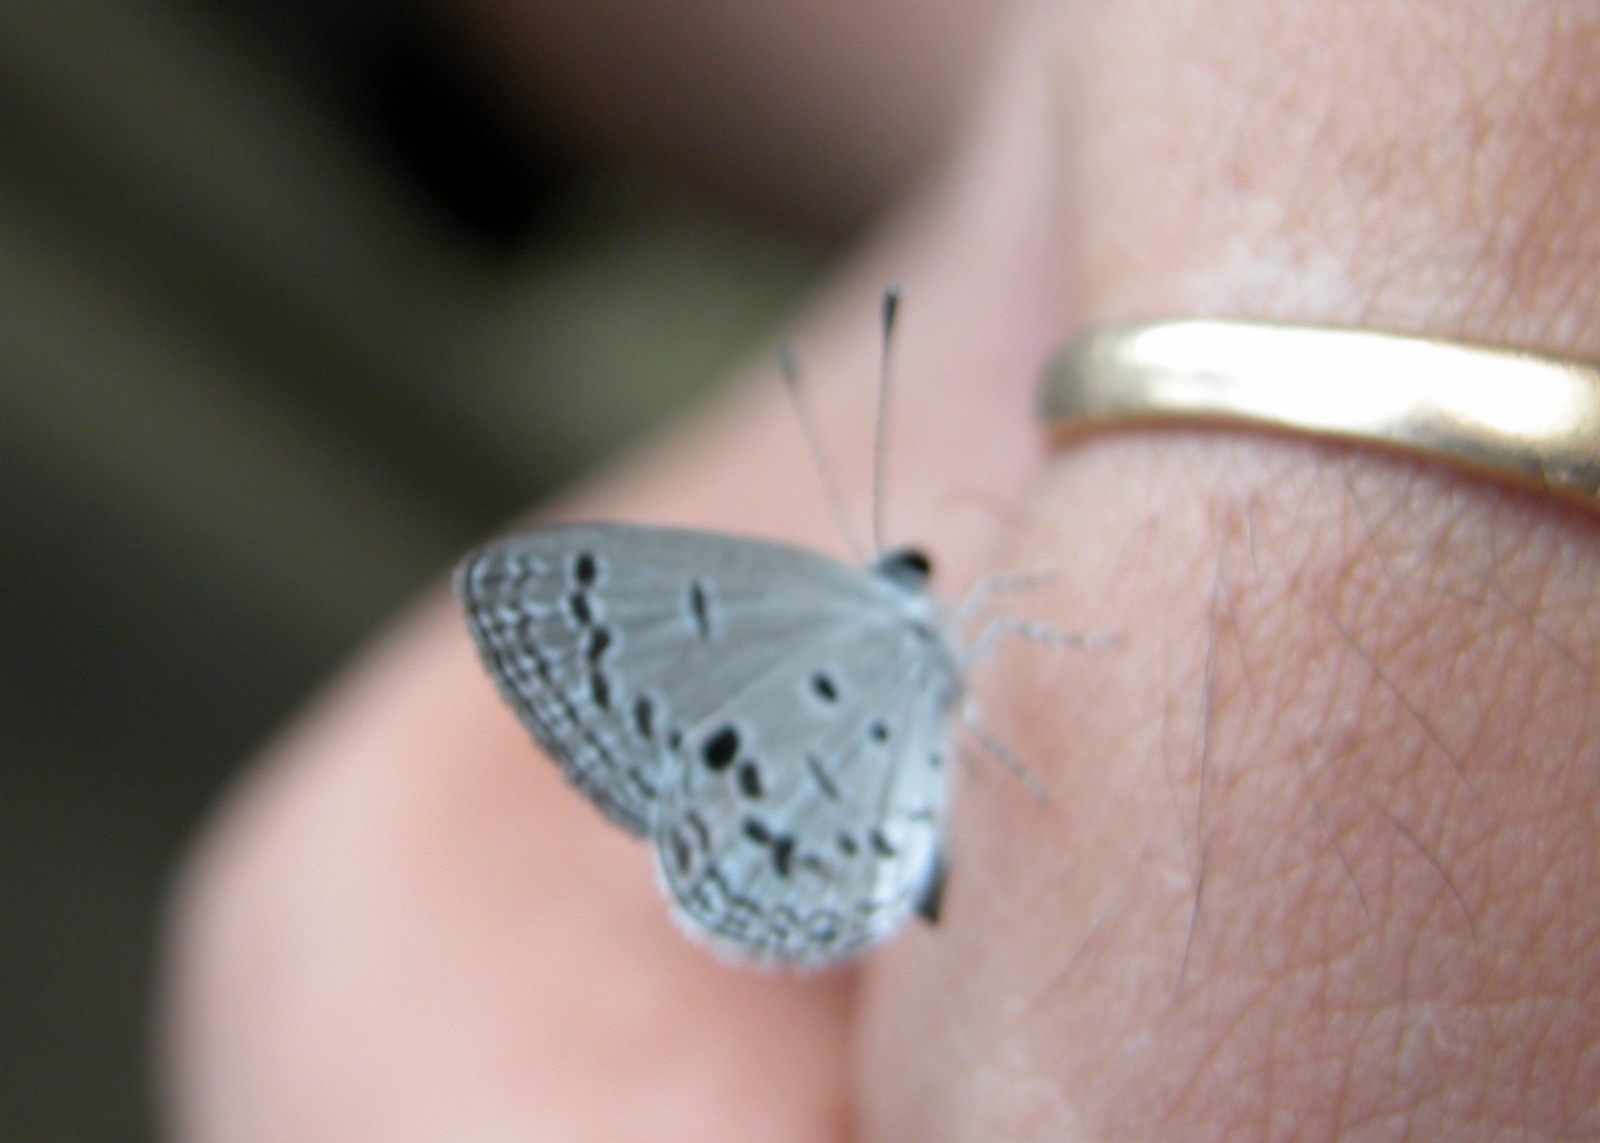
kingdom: Animalia
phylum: Arthropoda
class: Insecta
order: Lepidoptera
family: Lycaenidae
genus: Shijimia
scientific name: Shijimia moorei
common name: Bicolor cupid
